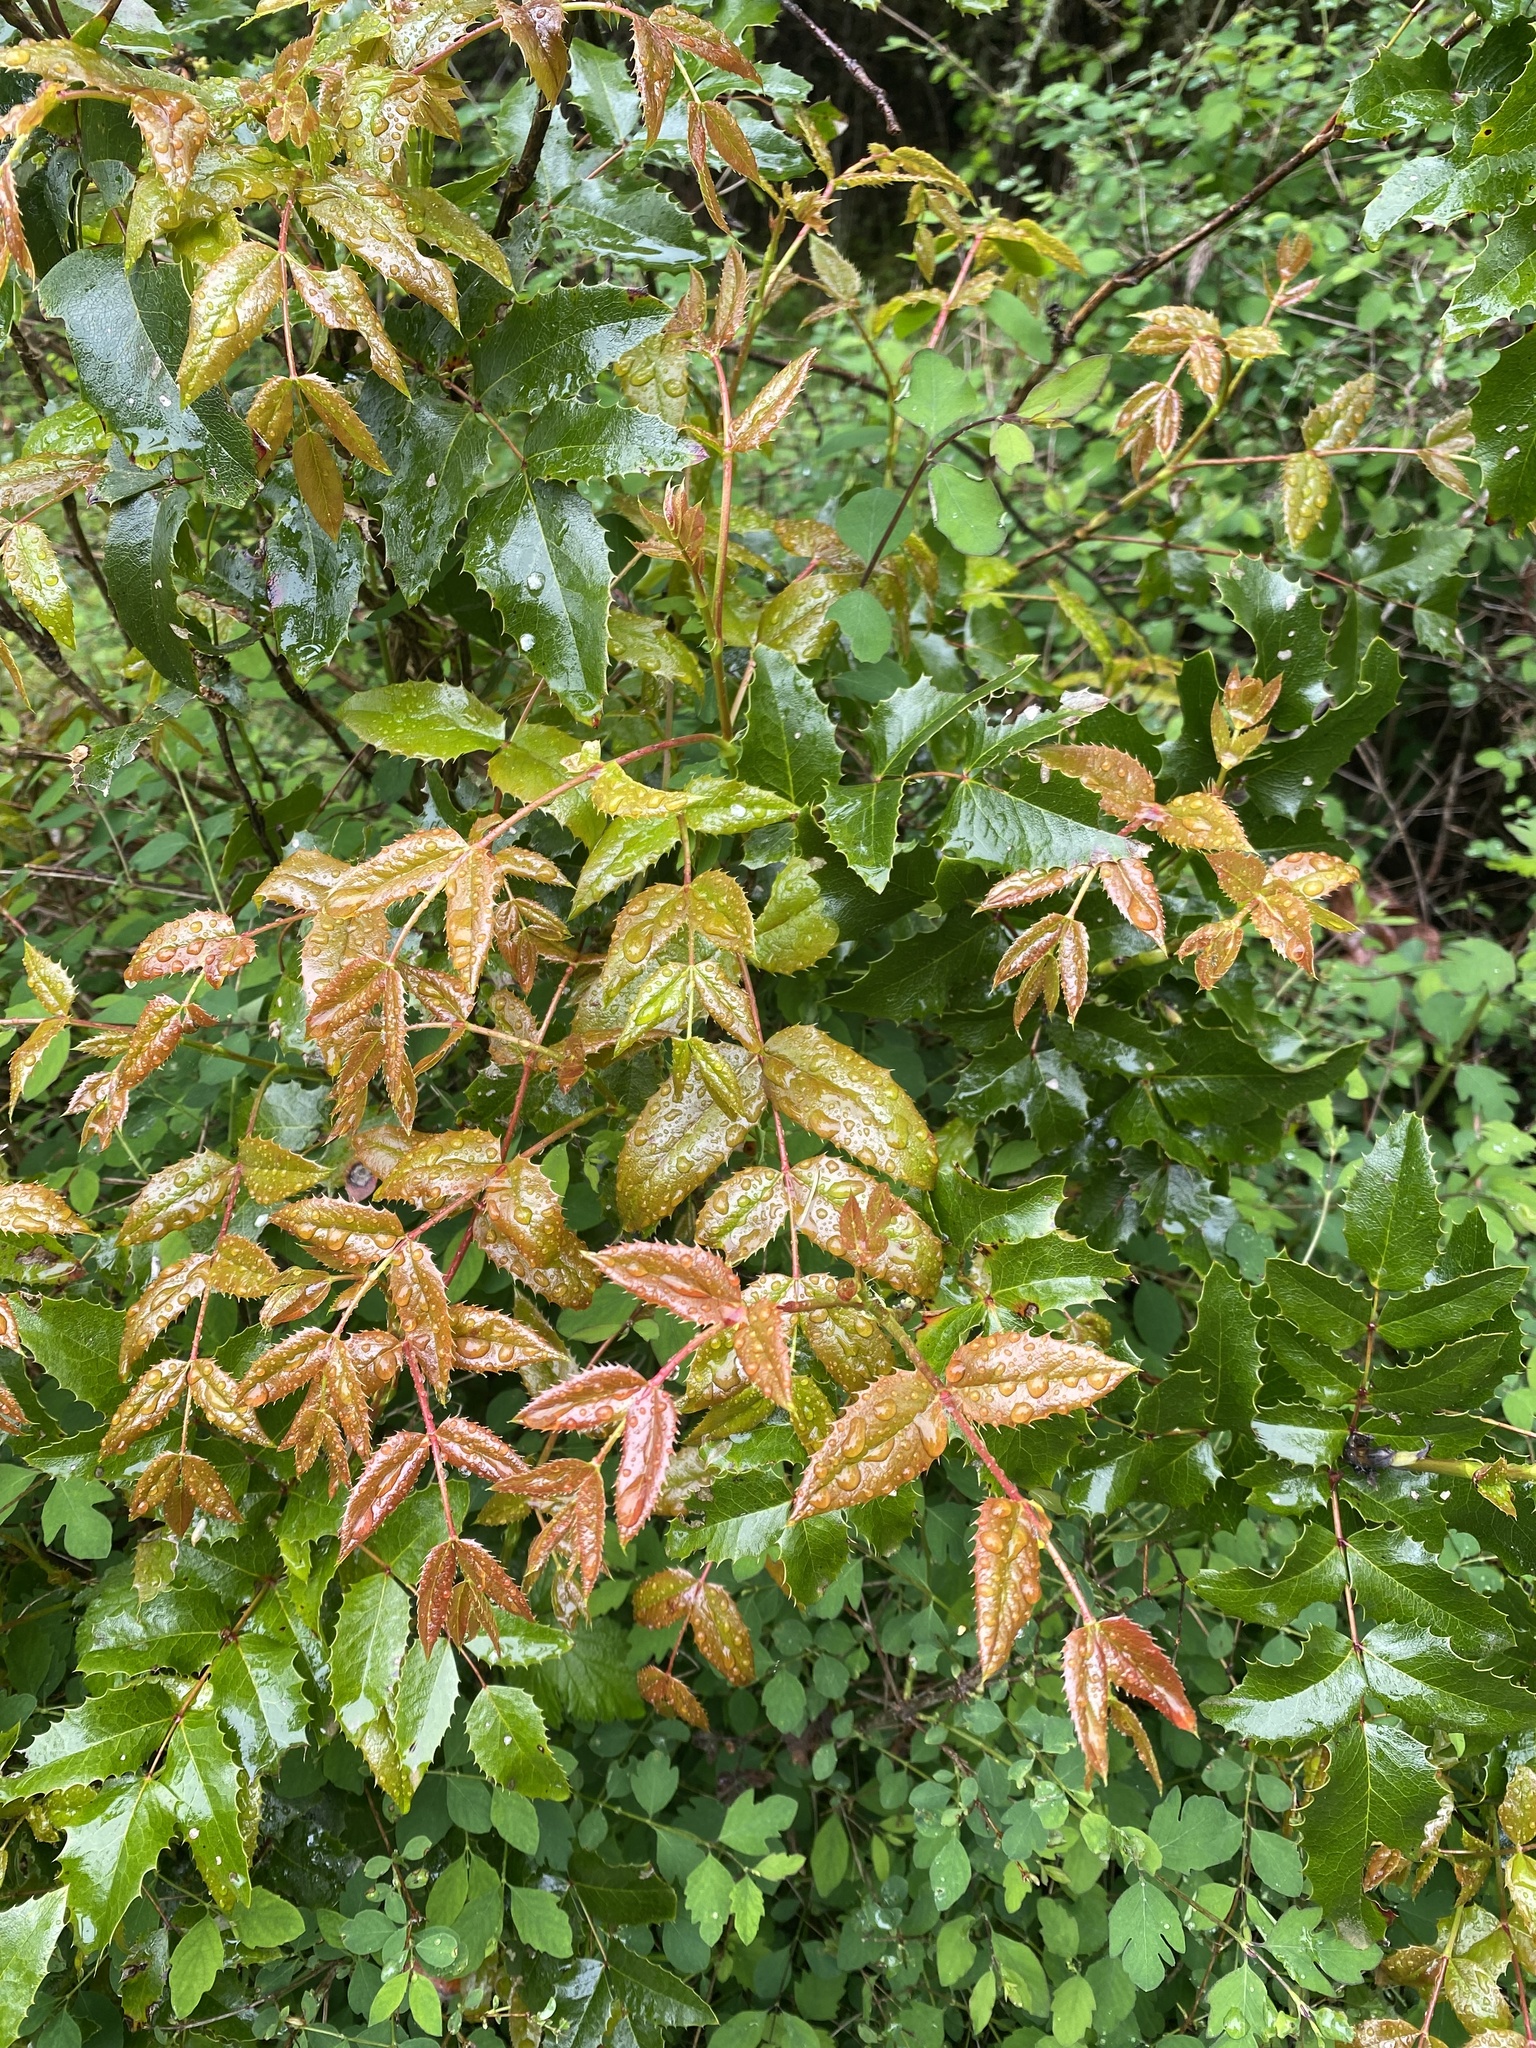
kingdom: Plantae
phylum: Tracheophyta
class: Magnoliopsida
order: Ranunculales
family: Berberidaceae
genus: Mahonia
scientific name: Mahonia aquifolium
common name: Oregon-grape
